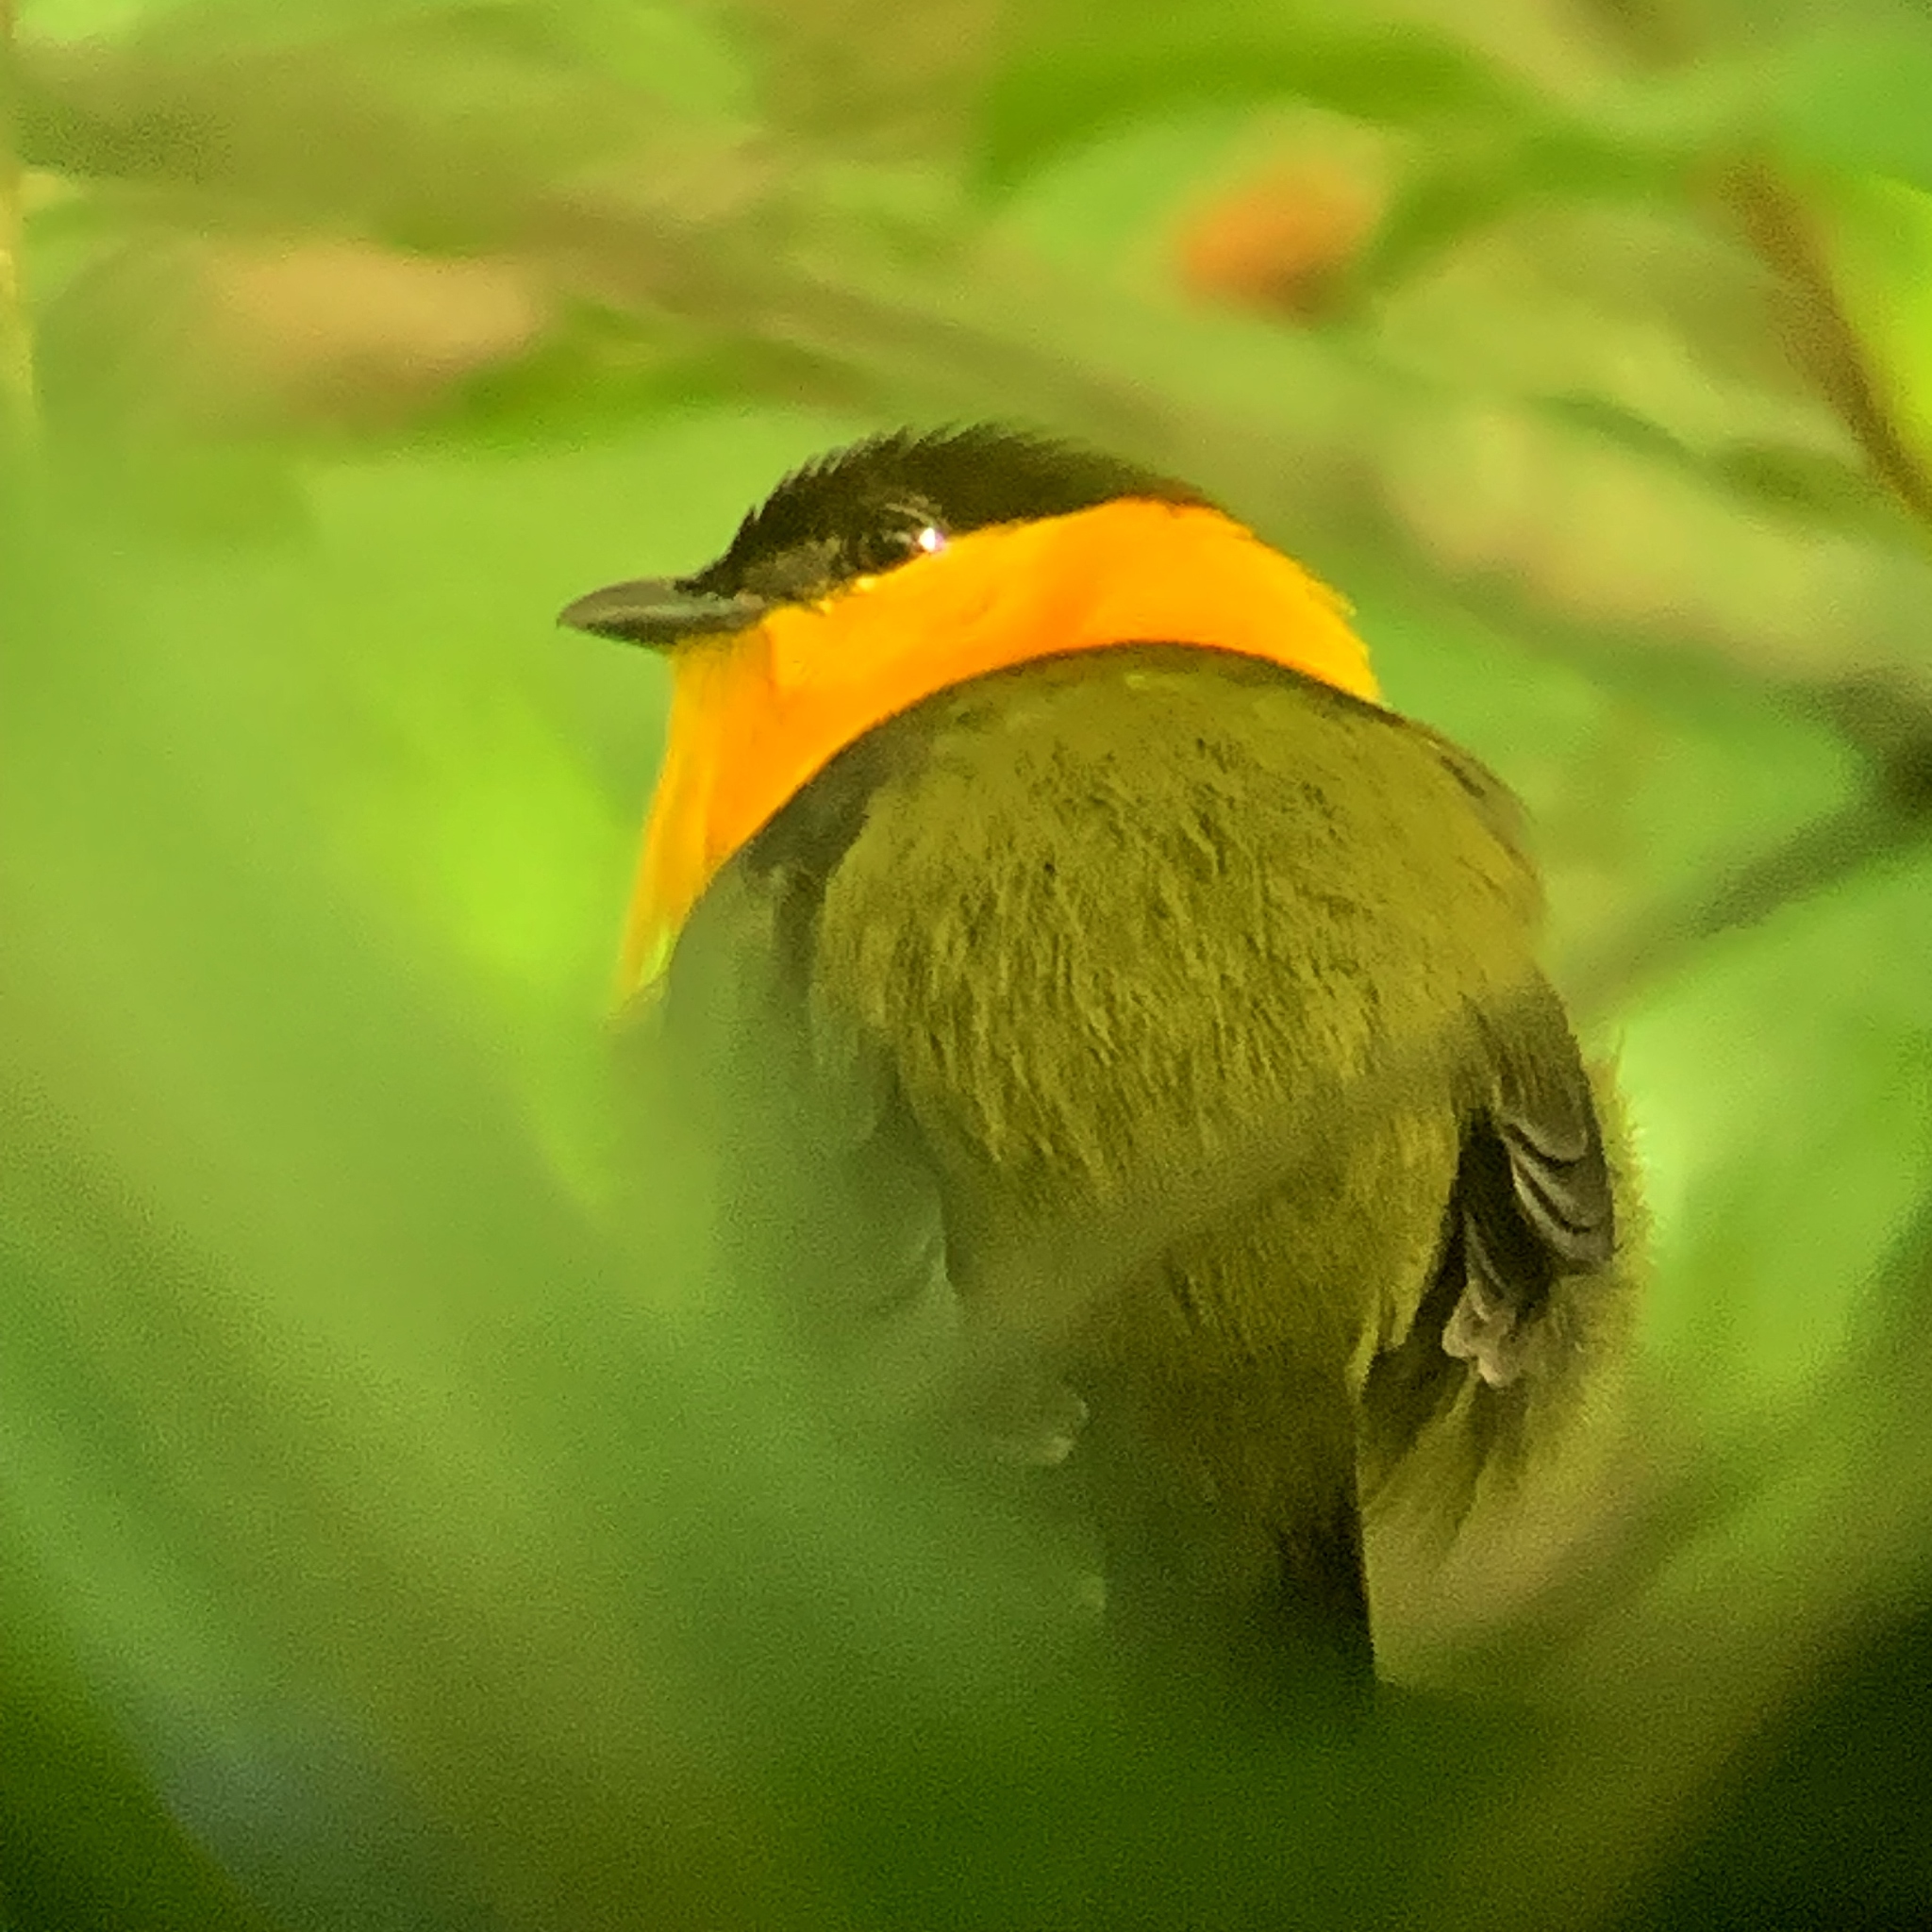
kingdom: Animalia
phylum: Chordata
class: Aves
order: Passeriformes
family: Pipridae
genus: Manacus
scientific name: Manacus vitellinus
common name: Golden-collared manakin
